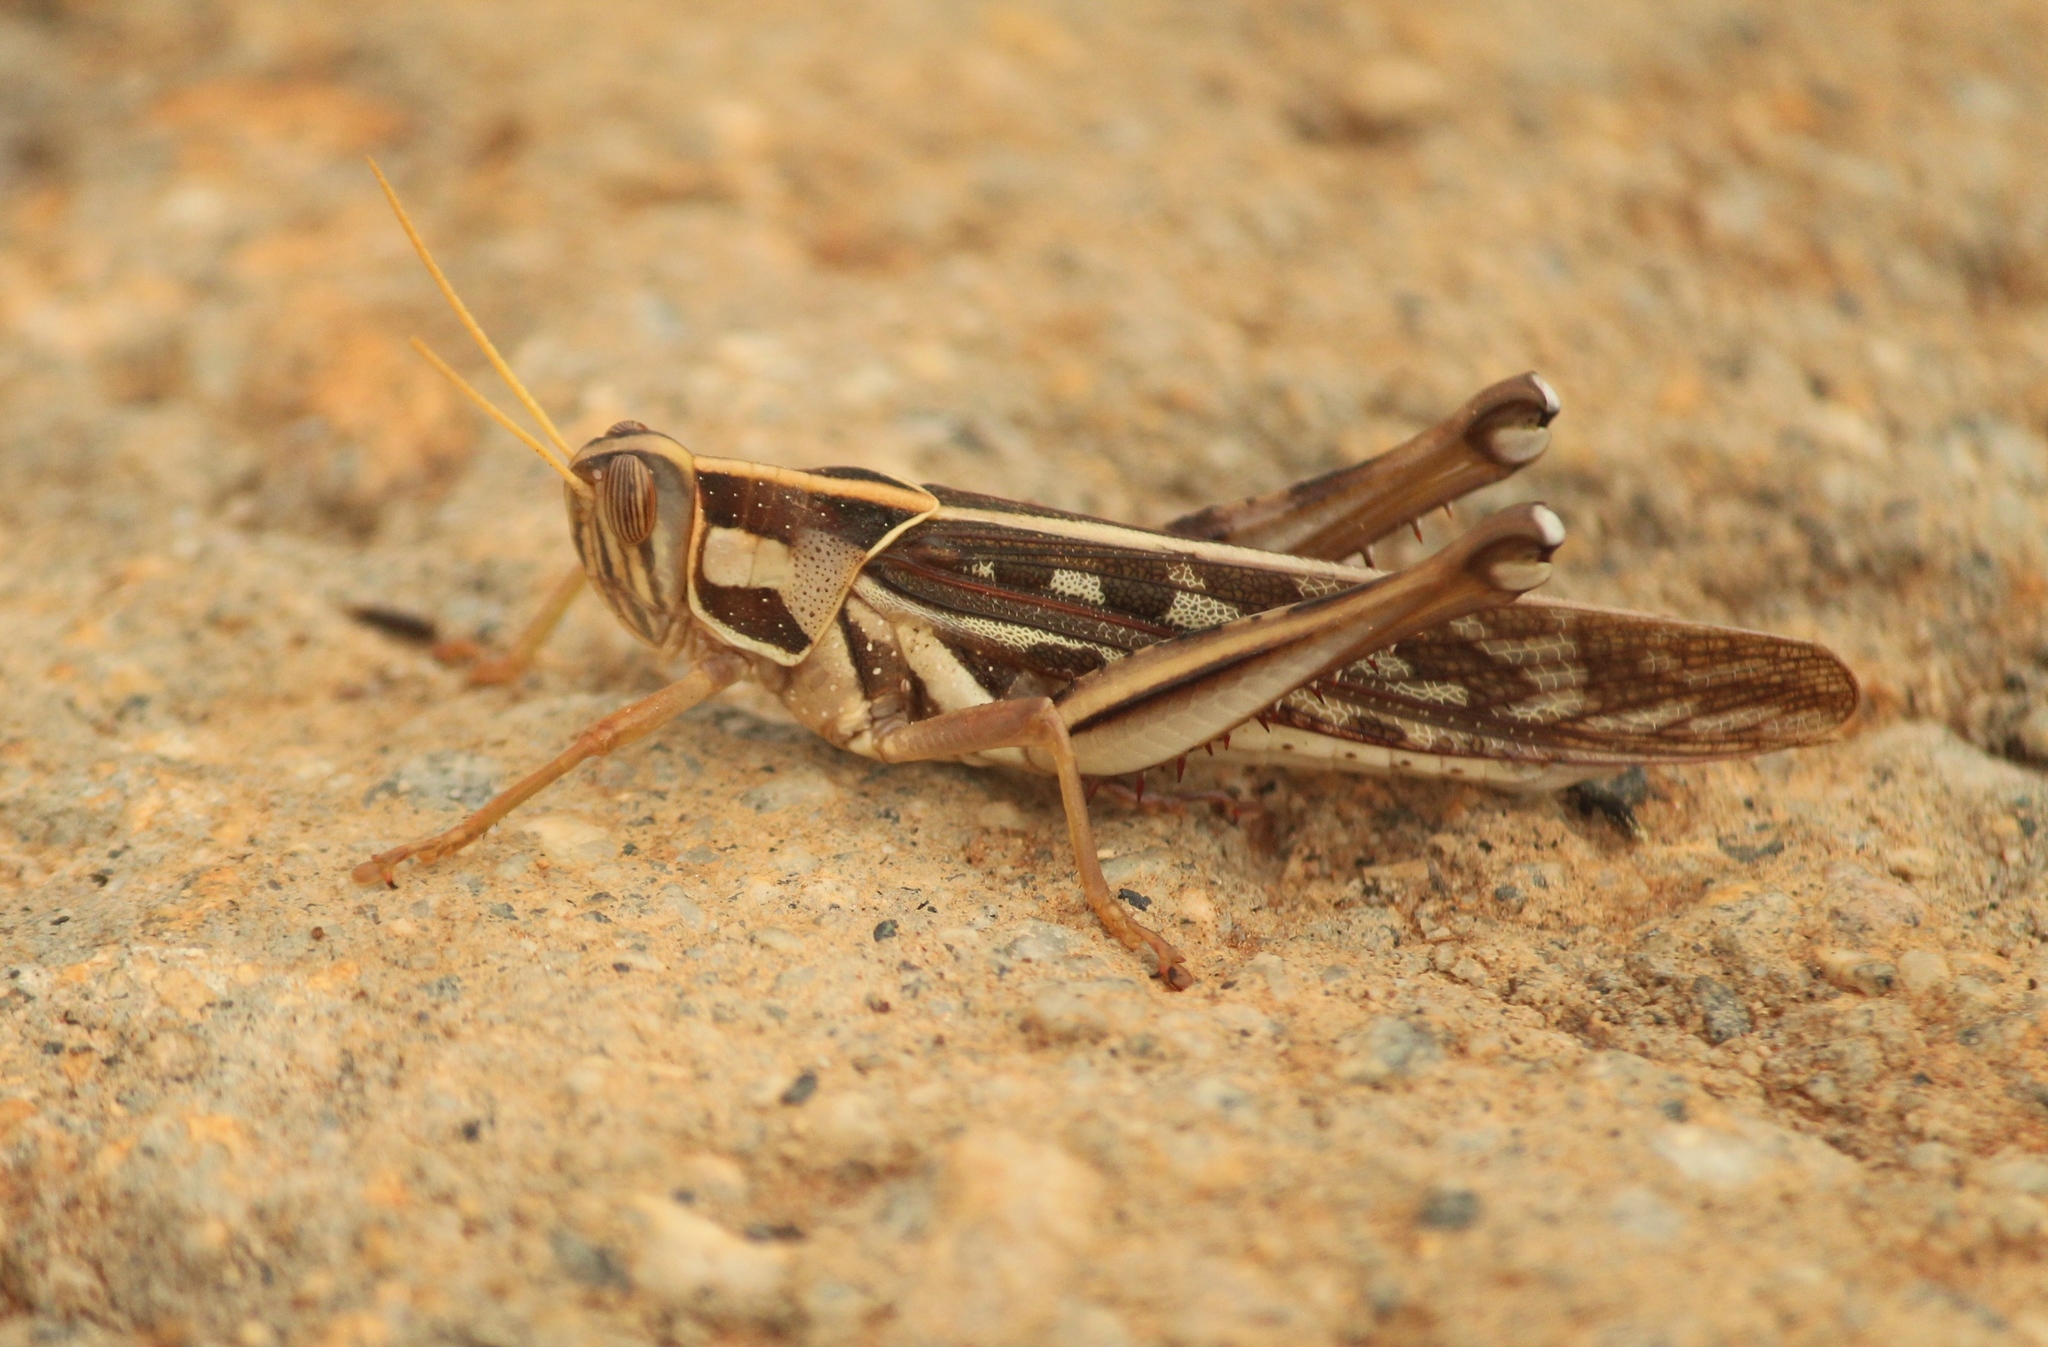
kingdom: Animalia
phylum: Arthropoda
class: Insecta
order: Orthoptera
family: Acrididae
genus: Cyrtacanthacris
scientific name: Cyrtacanthacris tatarica
